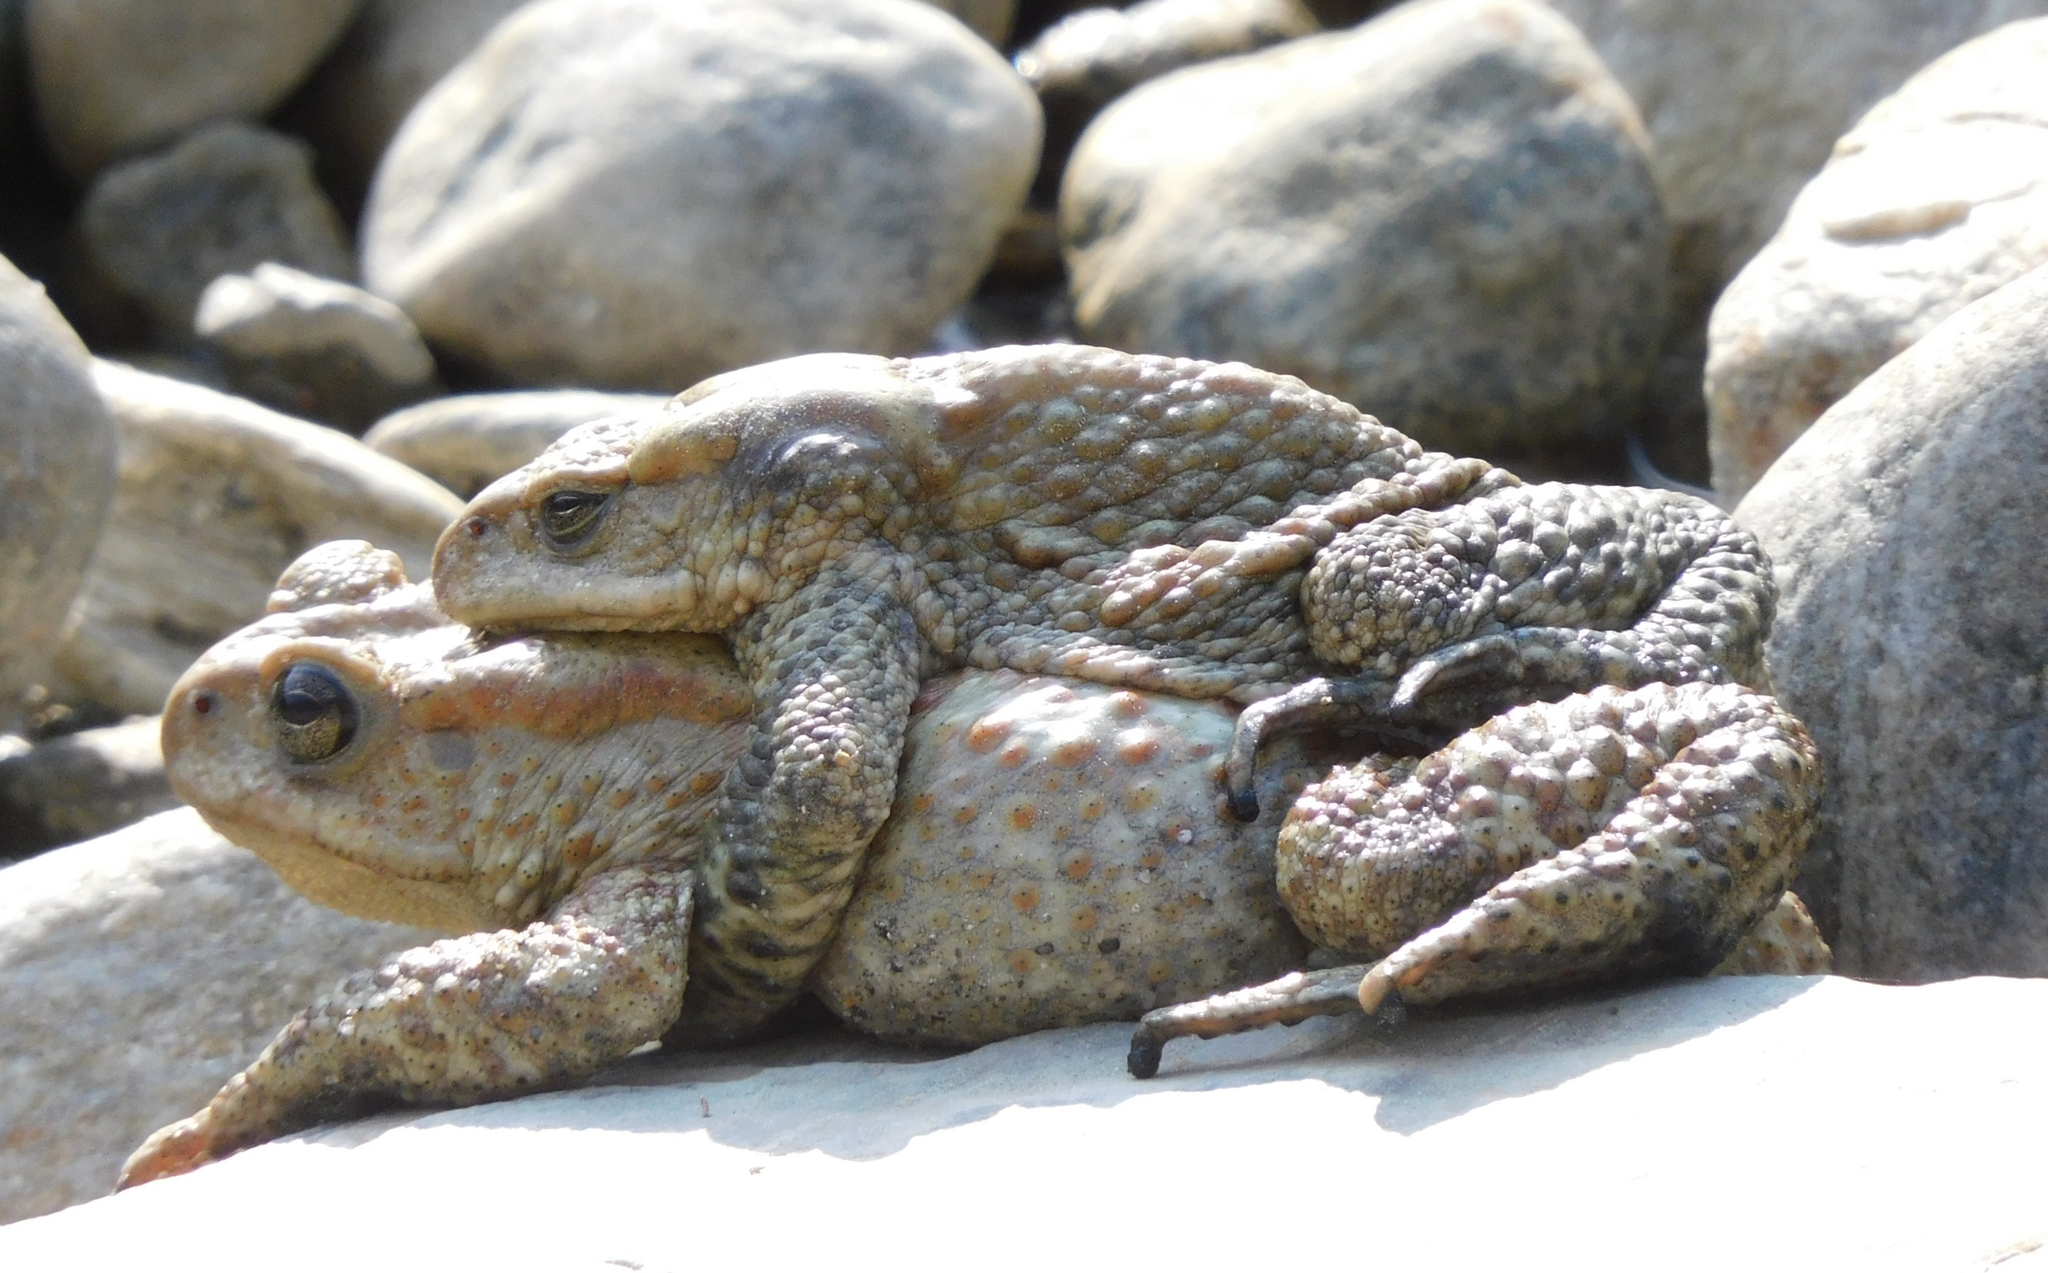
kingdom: Animalia
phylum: Chordata
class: Amphibia
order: Anura
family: Bufonidae
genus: Duttaphrynus
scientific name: Duttaphrynus himalayanus
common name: Günther's high altitude toad
